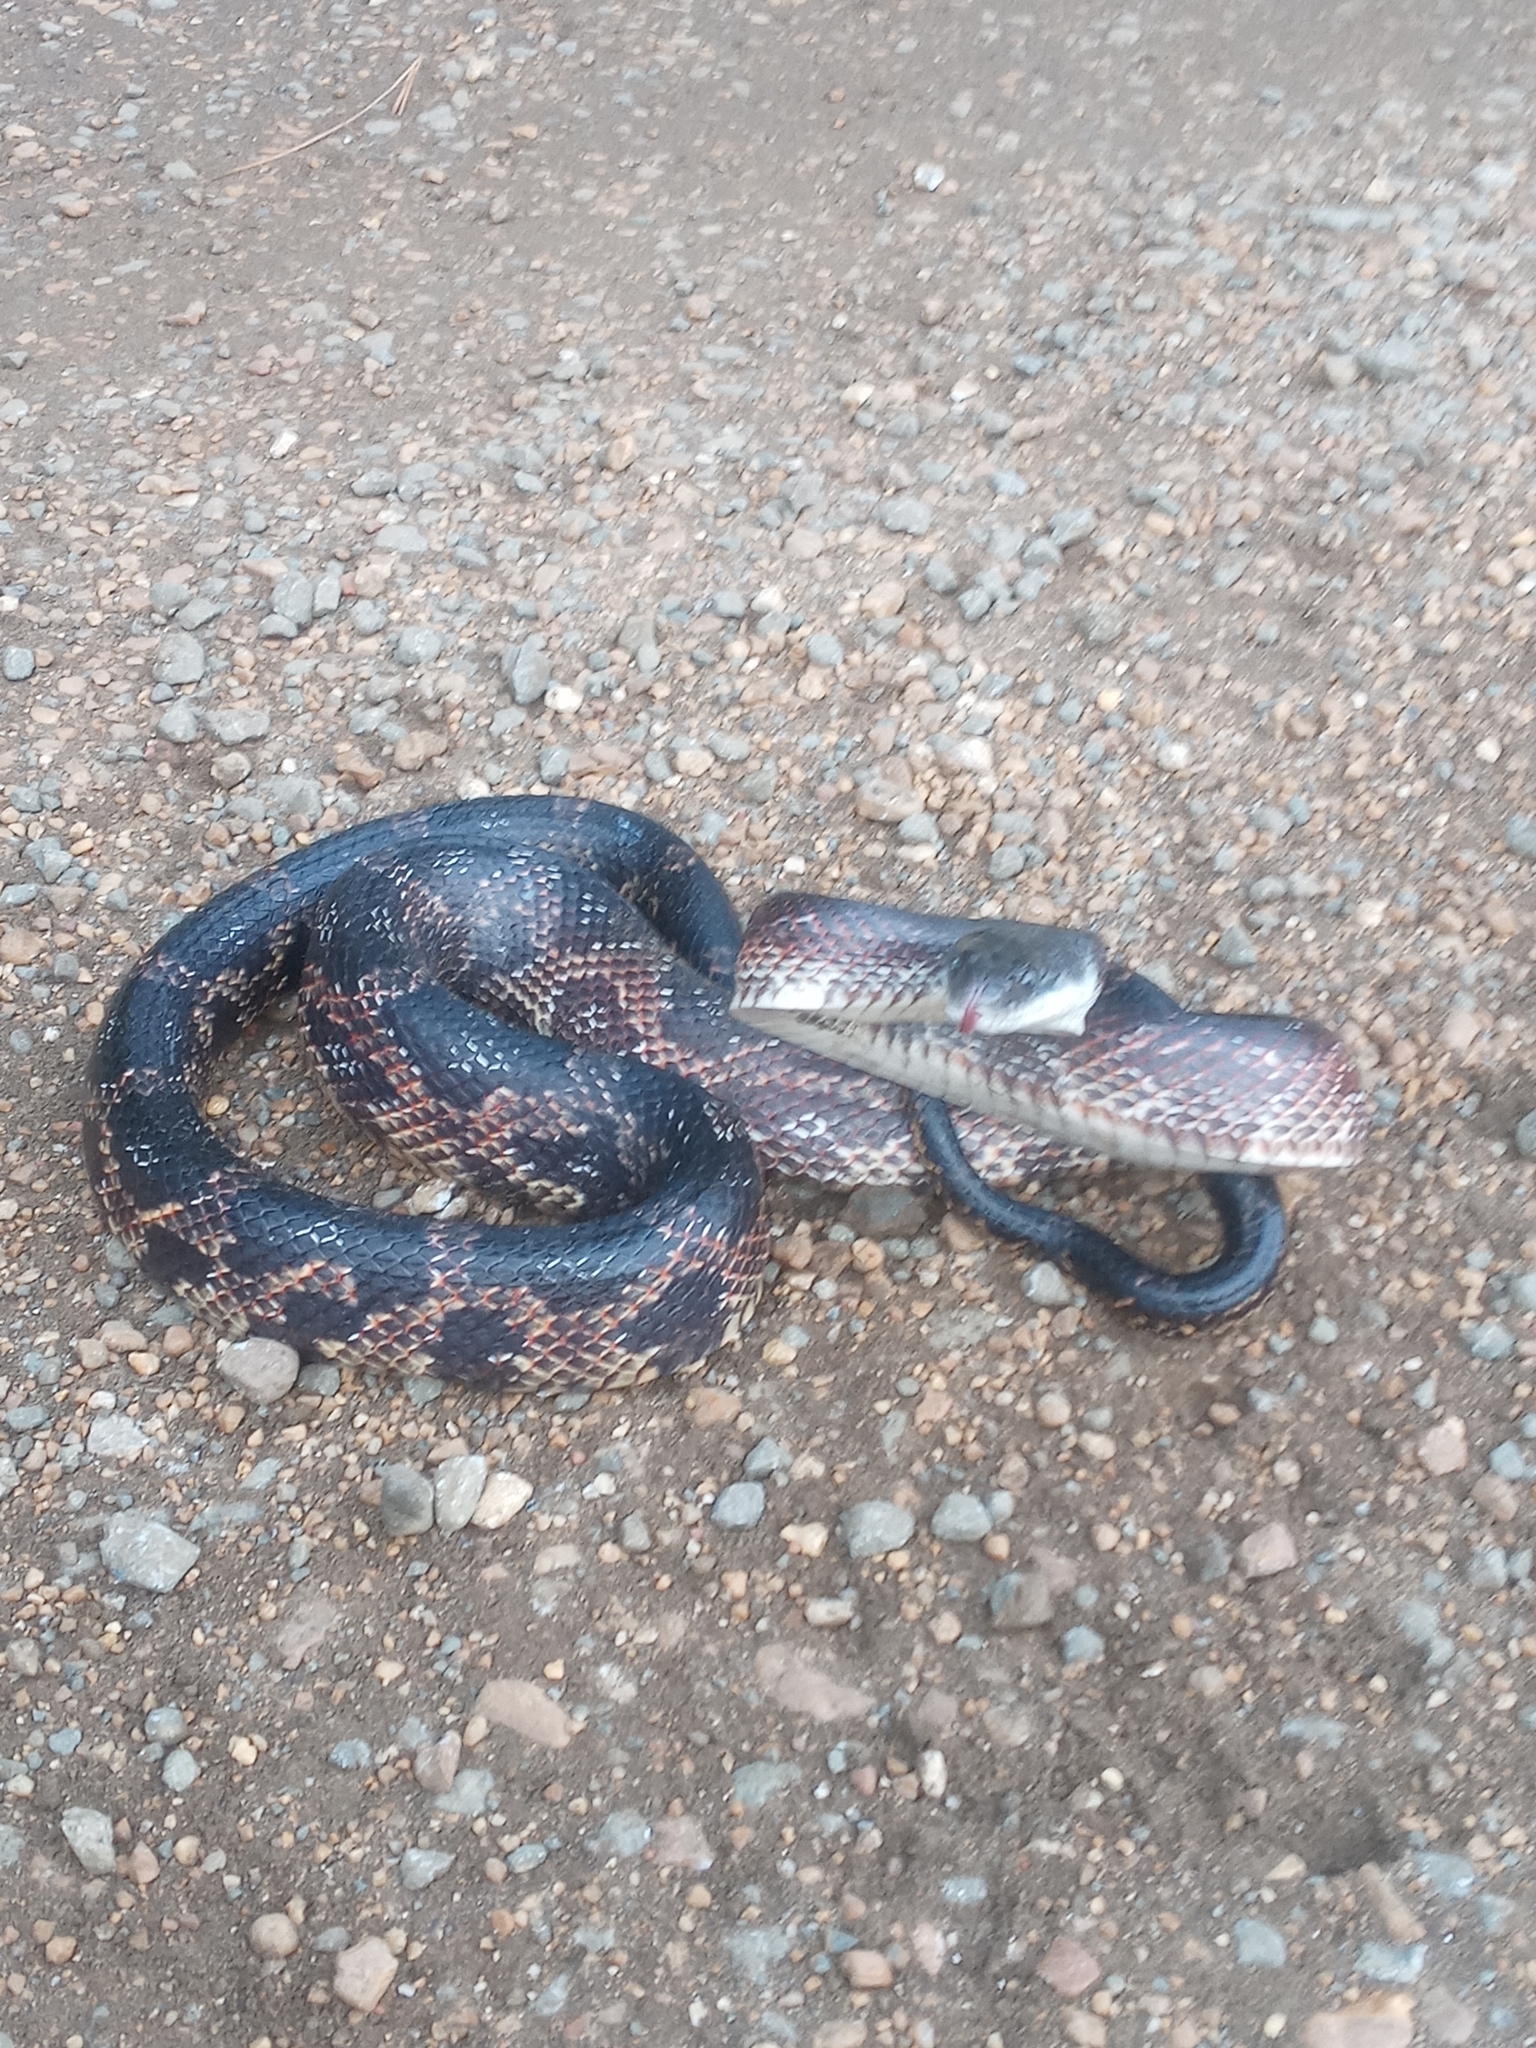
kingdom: Animalia
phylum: Chordata
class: Squamata
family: Colubridae
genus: Pantherophis
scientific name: Pantherophis obsoletus
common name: Black rat snake
